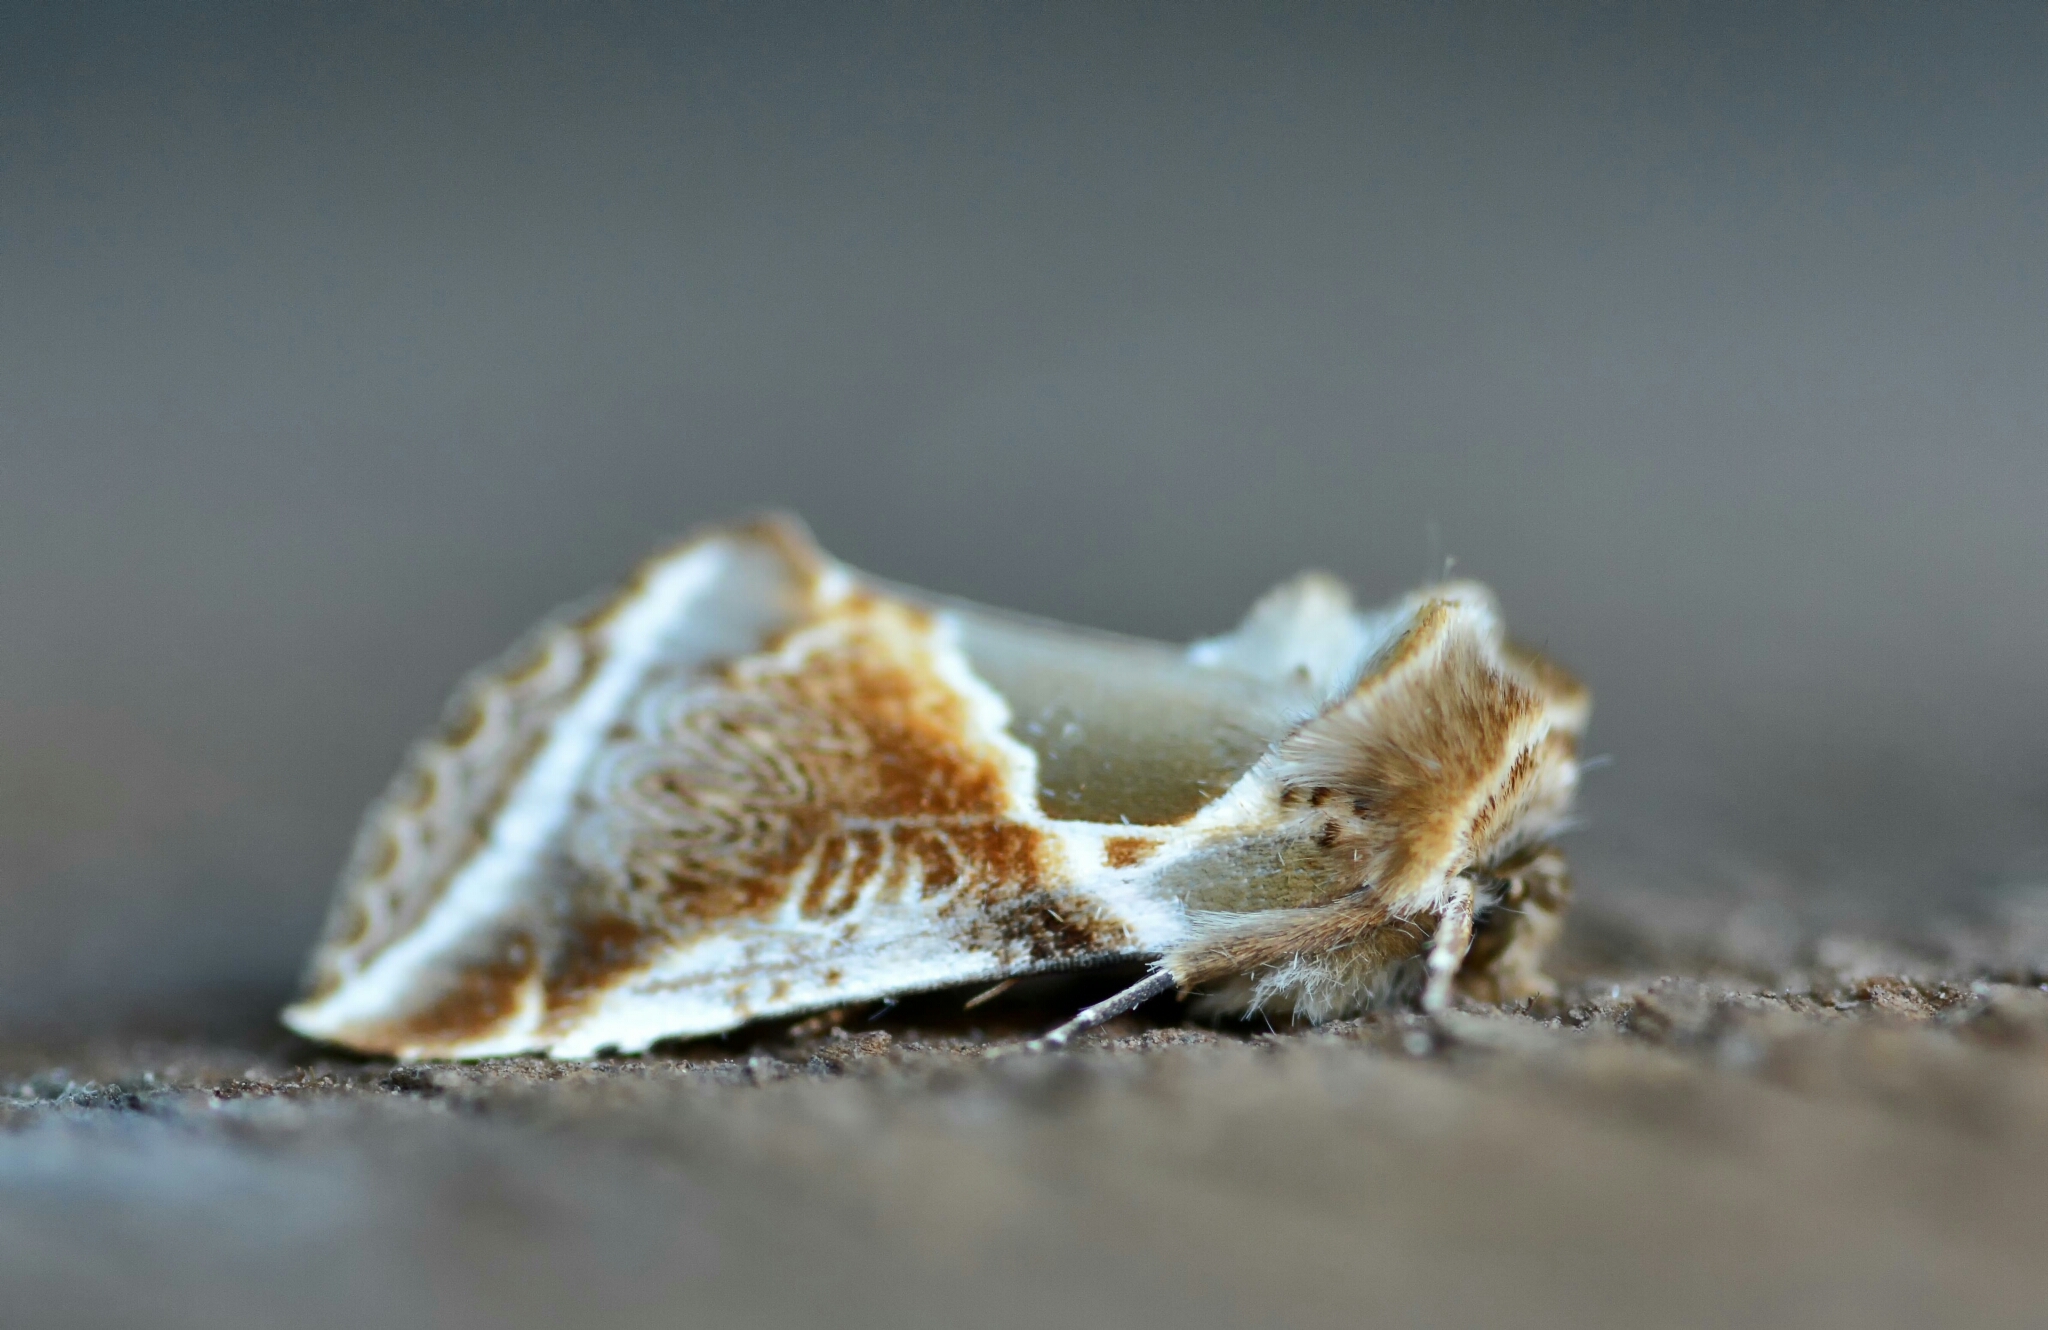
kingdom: Animalia
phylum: Arthropoda
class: Insecta
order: Lepidoptera
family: Drepanidae
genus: Habrosyne
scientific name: Habrosyne pyritoides
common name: Buff arches
